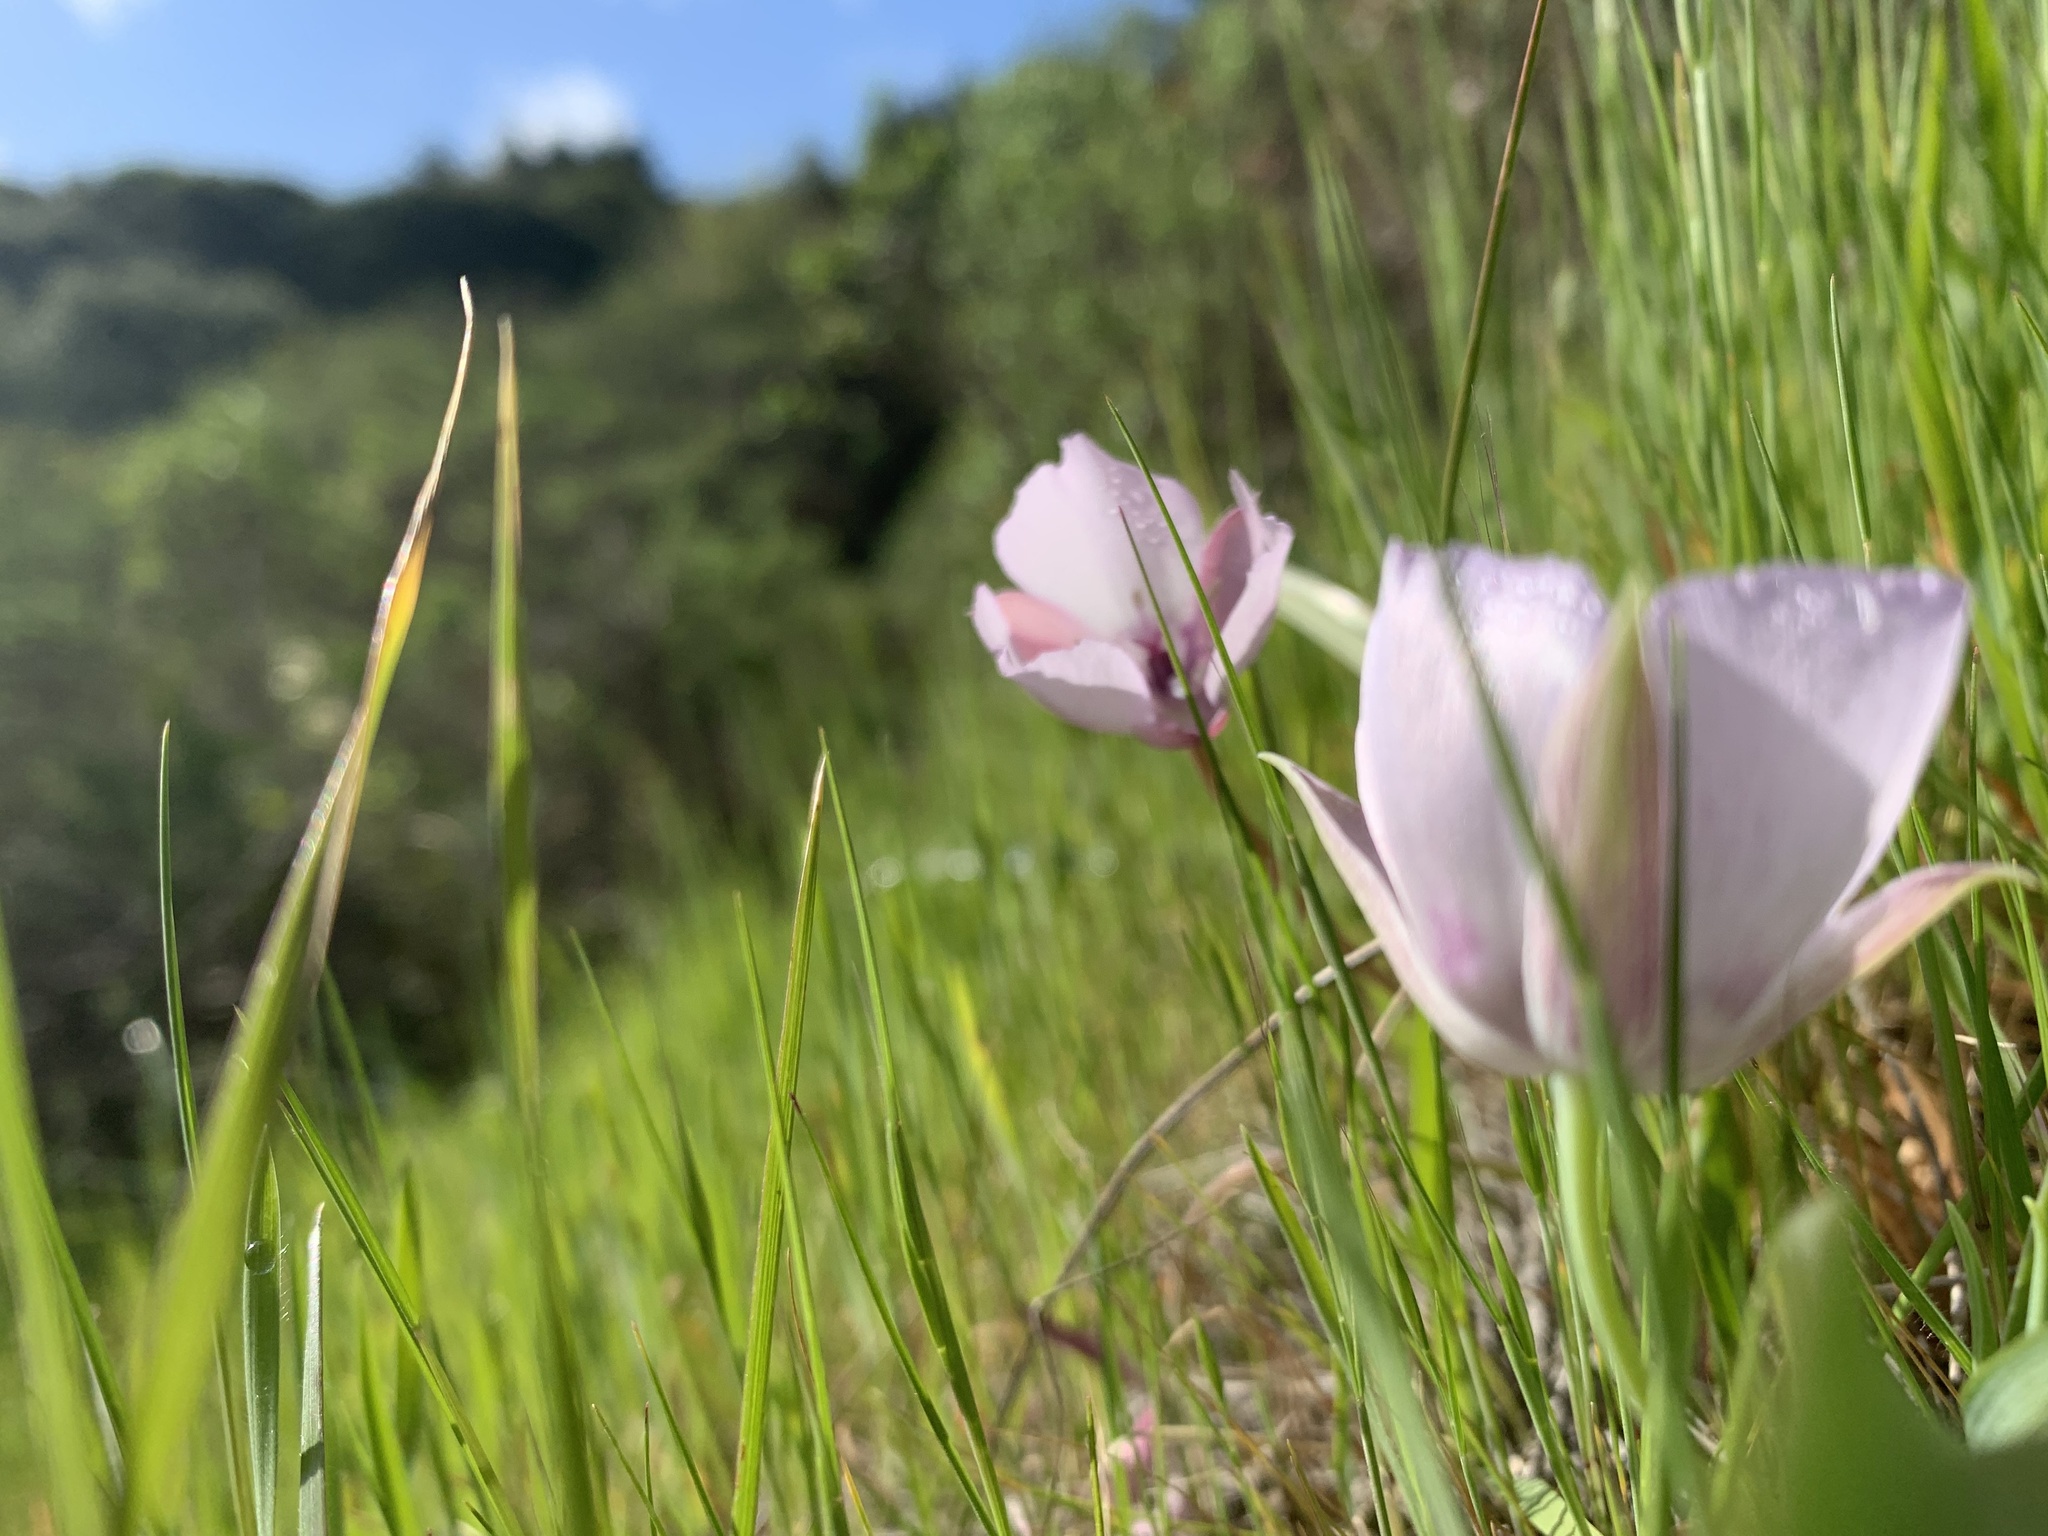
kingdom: Plantae
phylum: Tracheophyta
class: Liliopsida
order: Liliales
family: Liliaceae
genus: Calochortus
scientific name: Calochortus umbellatus
